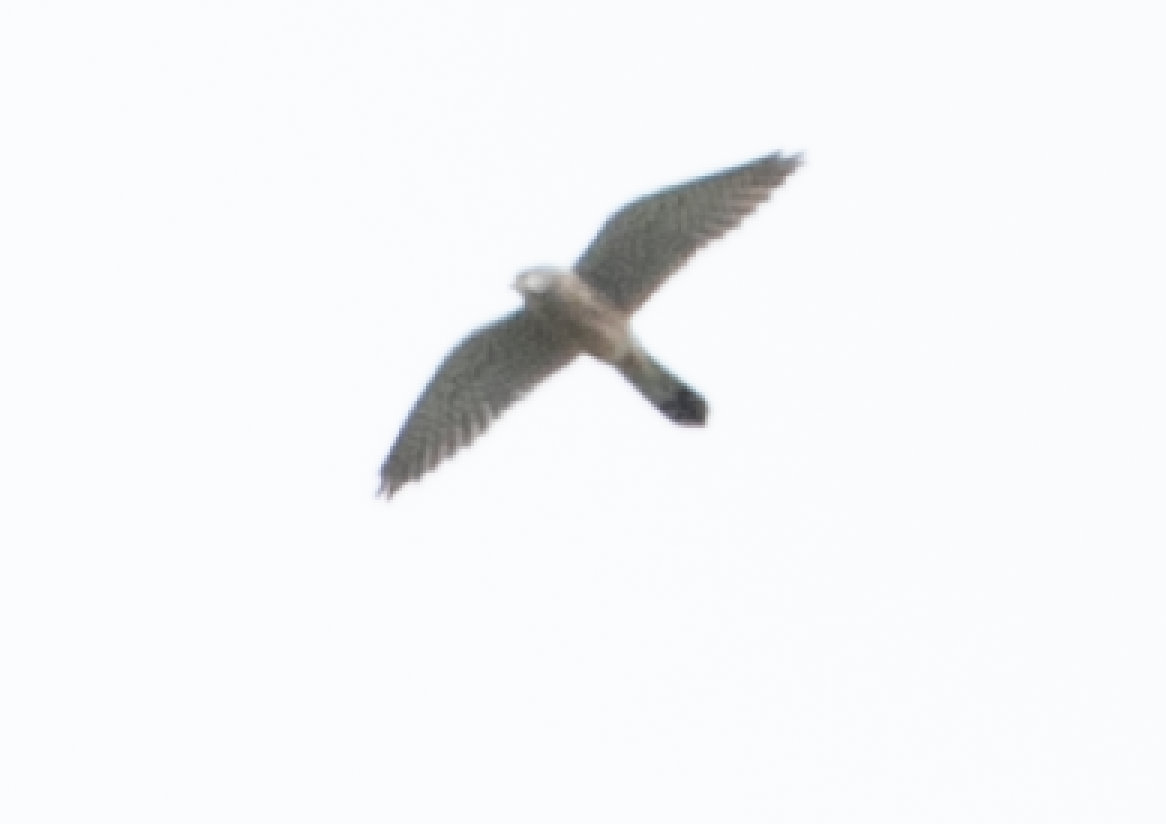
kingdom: Animalia
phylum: Chordata
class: Aves
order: Falconiformes
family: Falconidae
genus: Falco
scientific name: Falco tinnunculus
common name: Common kestrel
